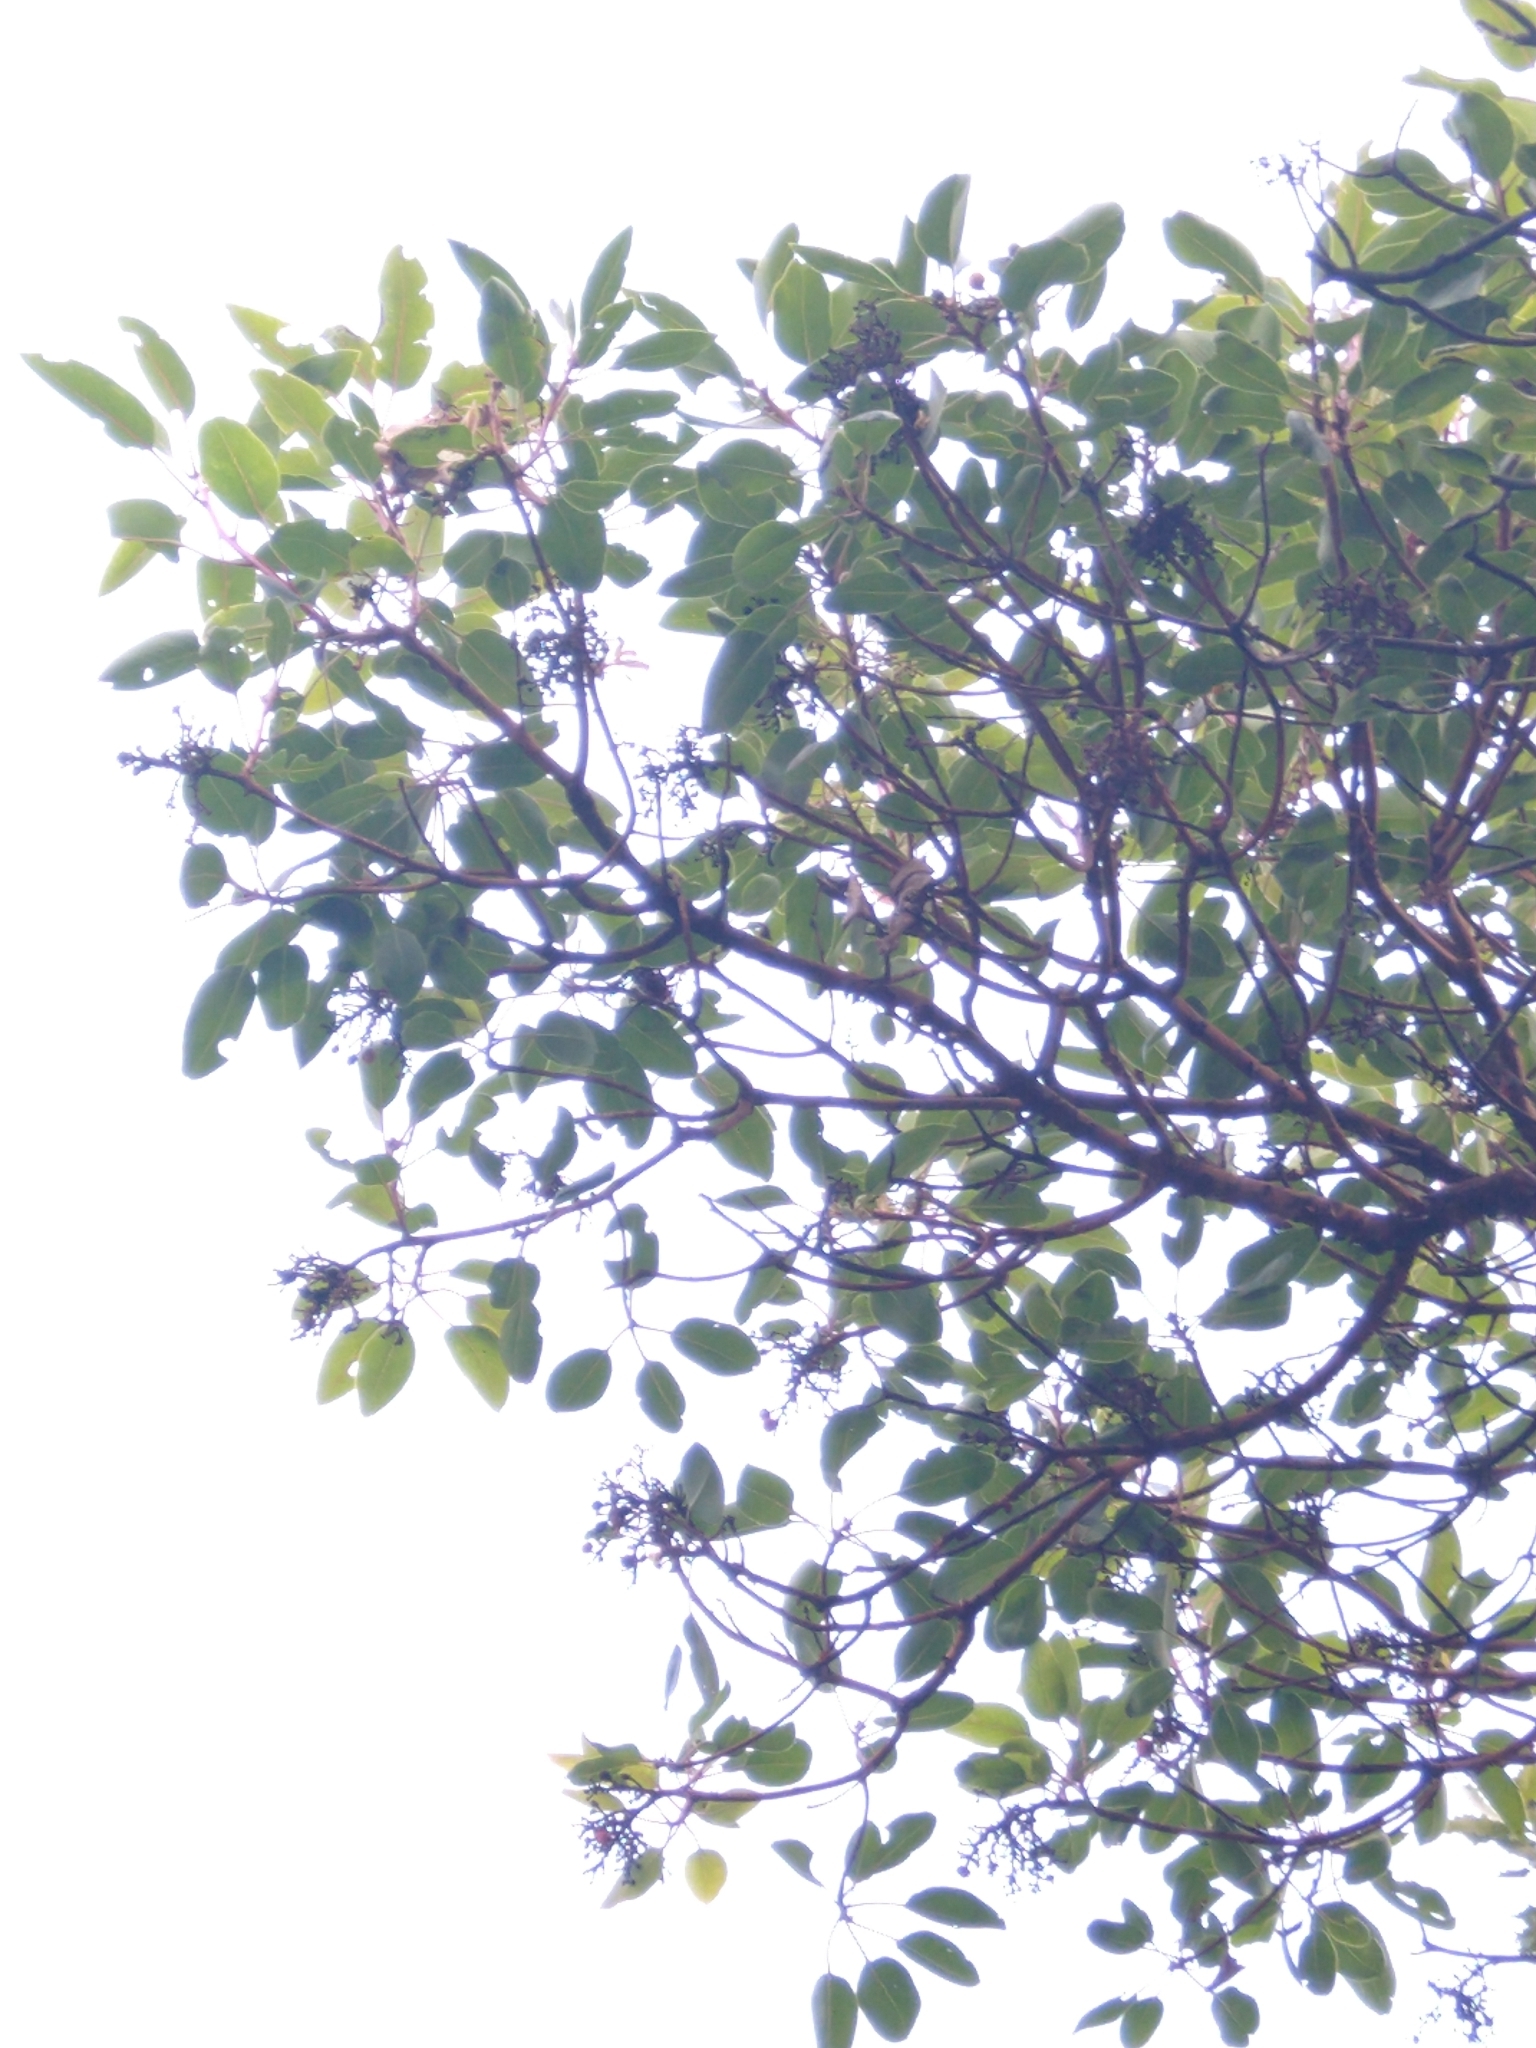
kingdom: Plantae
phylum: Tracheophyta
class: Magnoliopsida
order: Ericales
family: Ericaceae
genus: Arbutus
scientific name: Arbutus xalapensis
